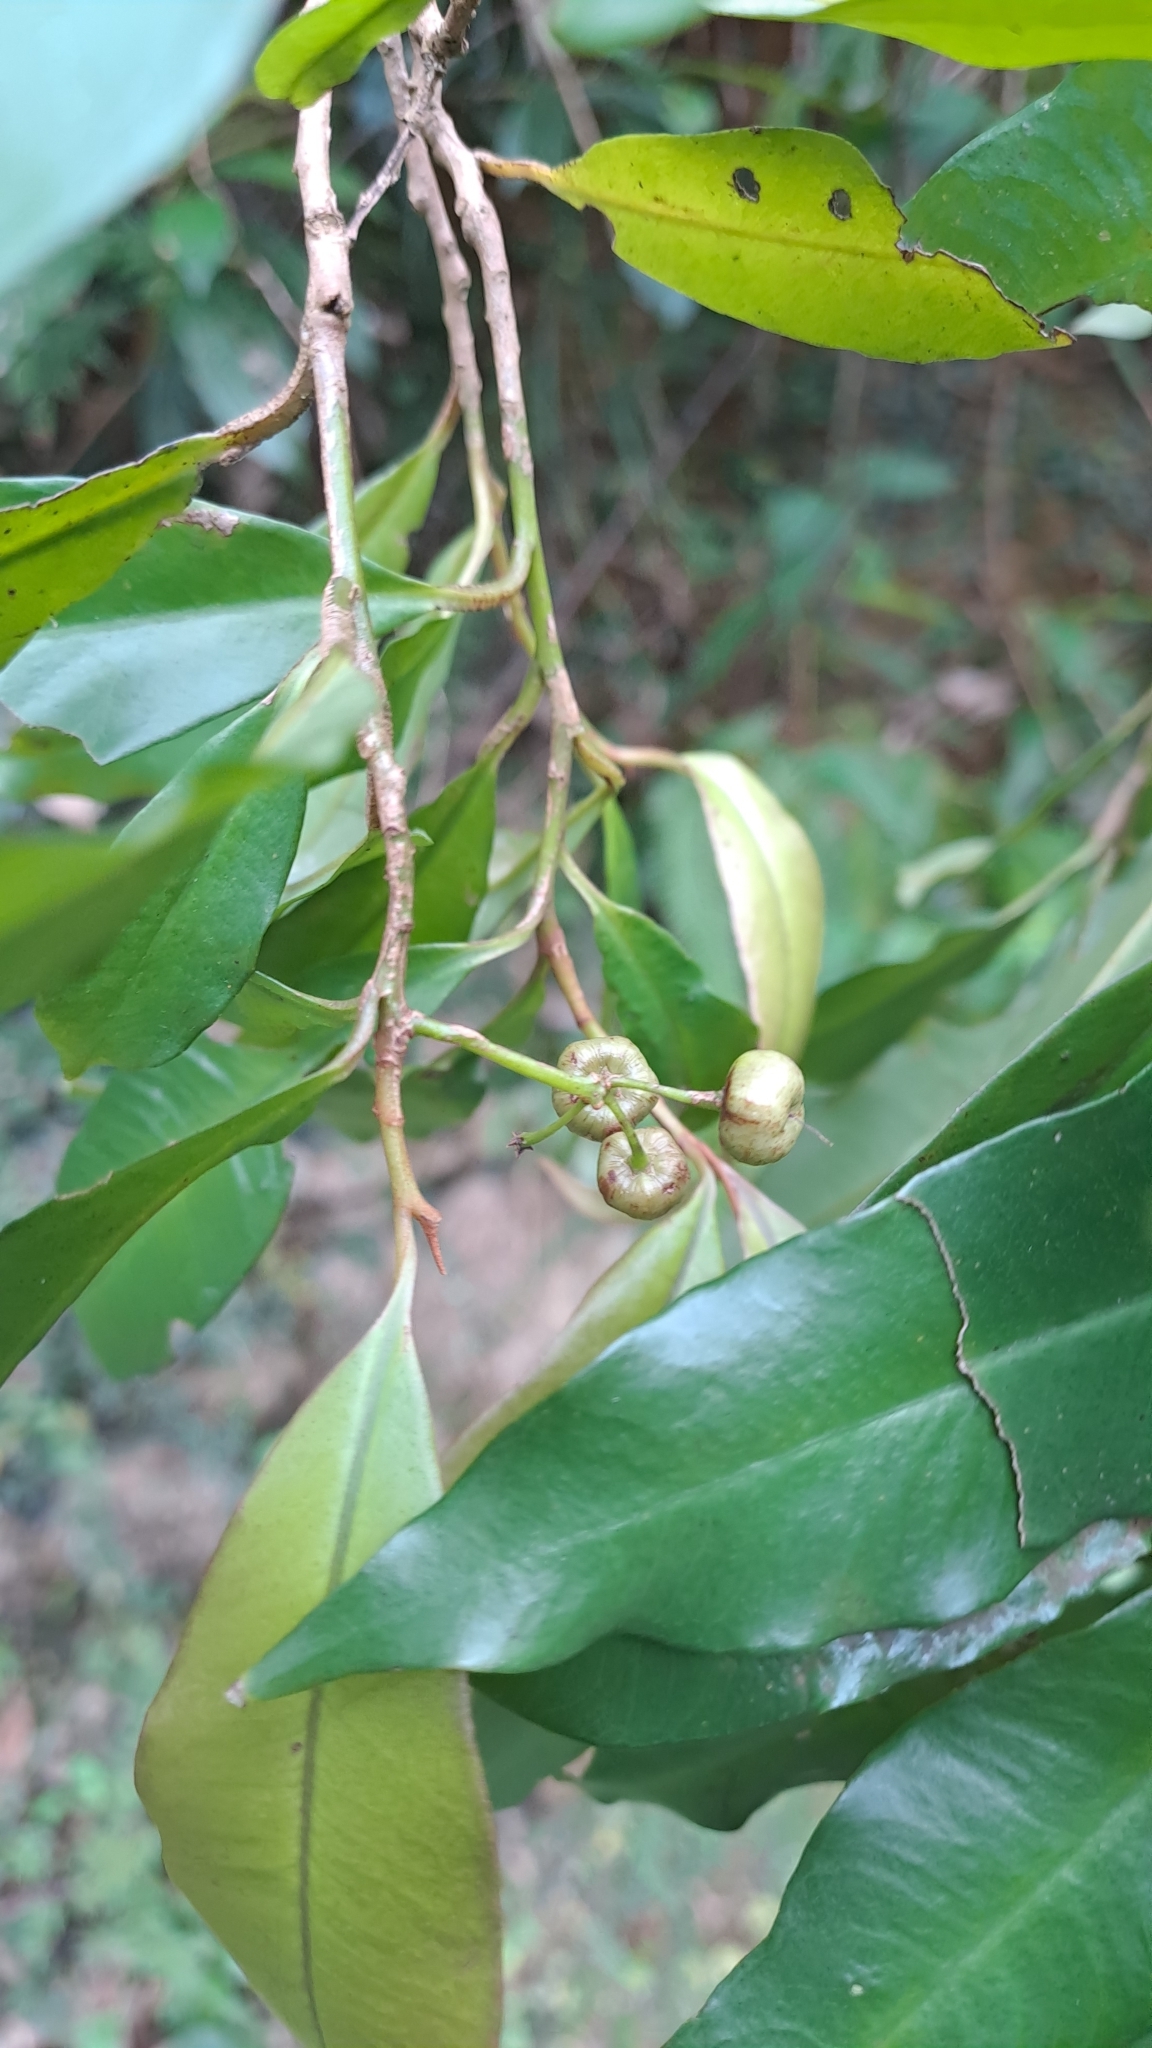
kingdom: Plantae
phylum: Tracheophyta
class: Magnoliopsida
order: Ericales
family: Primulaceae
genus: Ardisia
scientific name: Ardisia quinquegona
